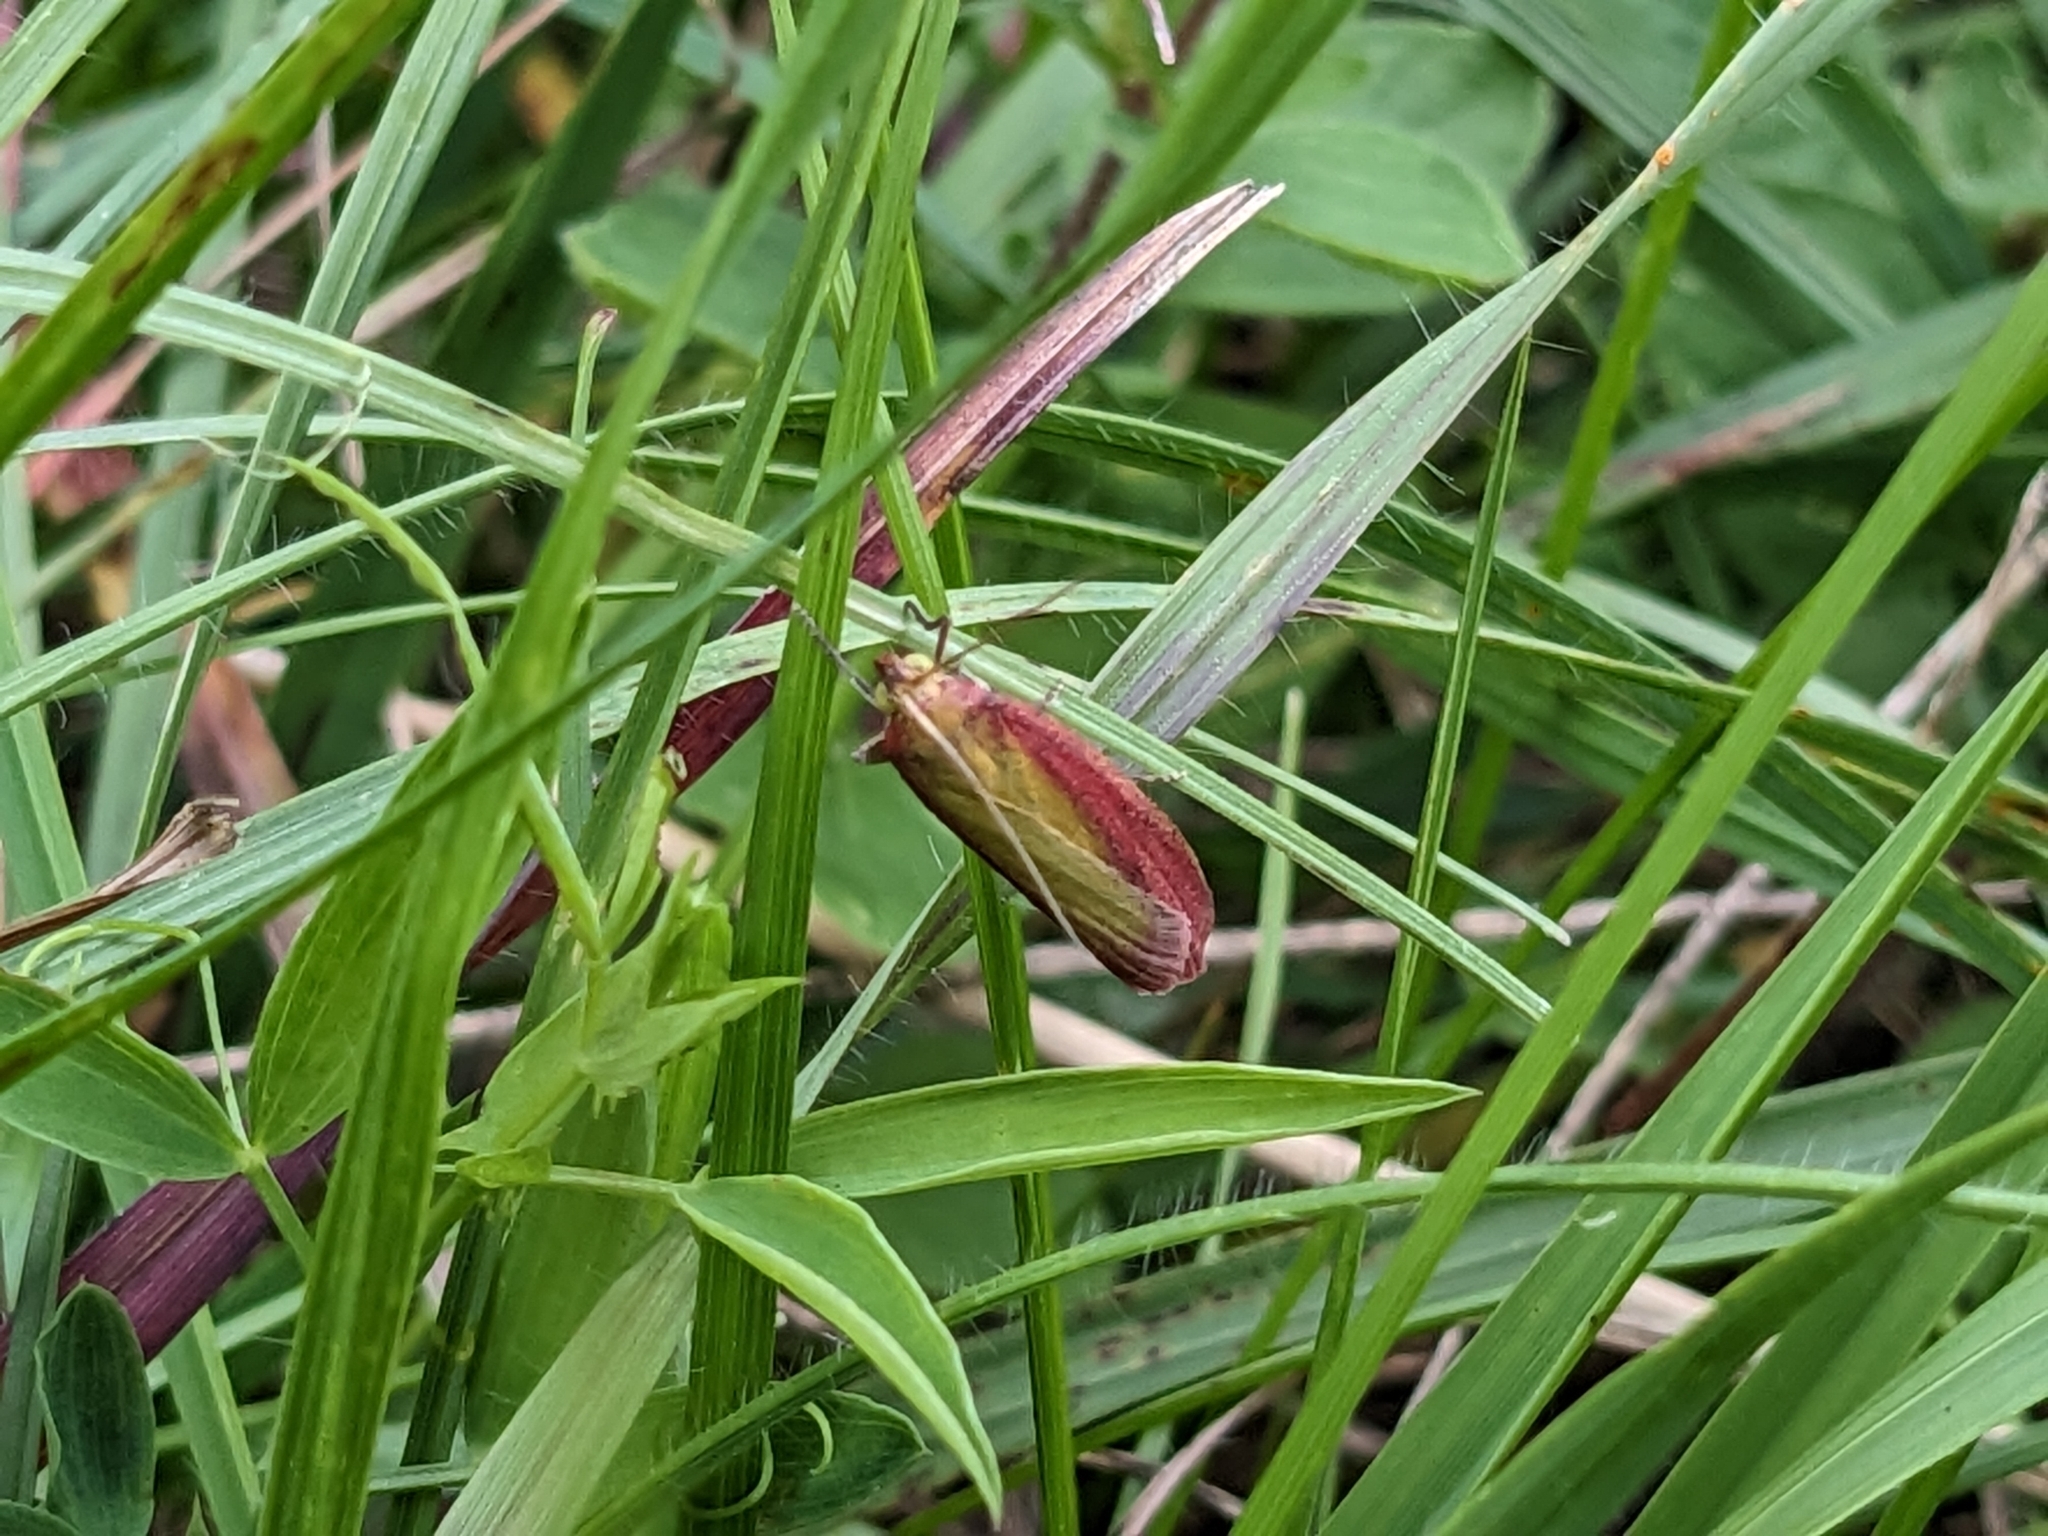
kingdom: Animalia
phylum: Arthropoda
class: Insecta
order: Lepidoptera
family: Pyralidae
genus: Oncocera
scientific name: Oncocera semirubella
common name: Rosy-striped knot-horn
